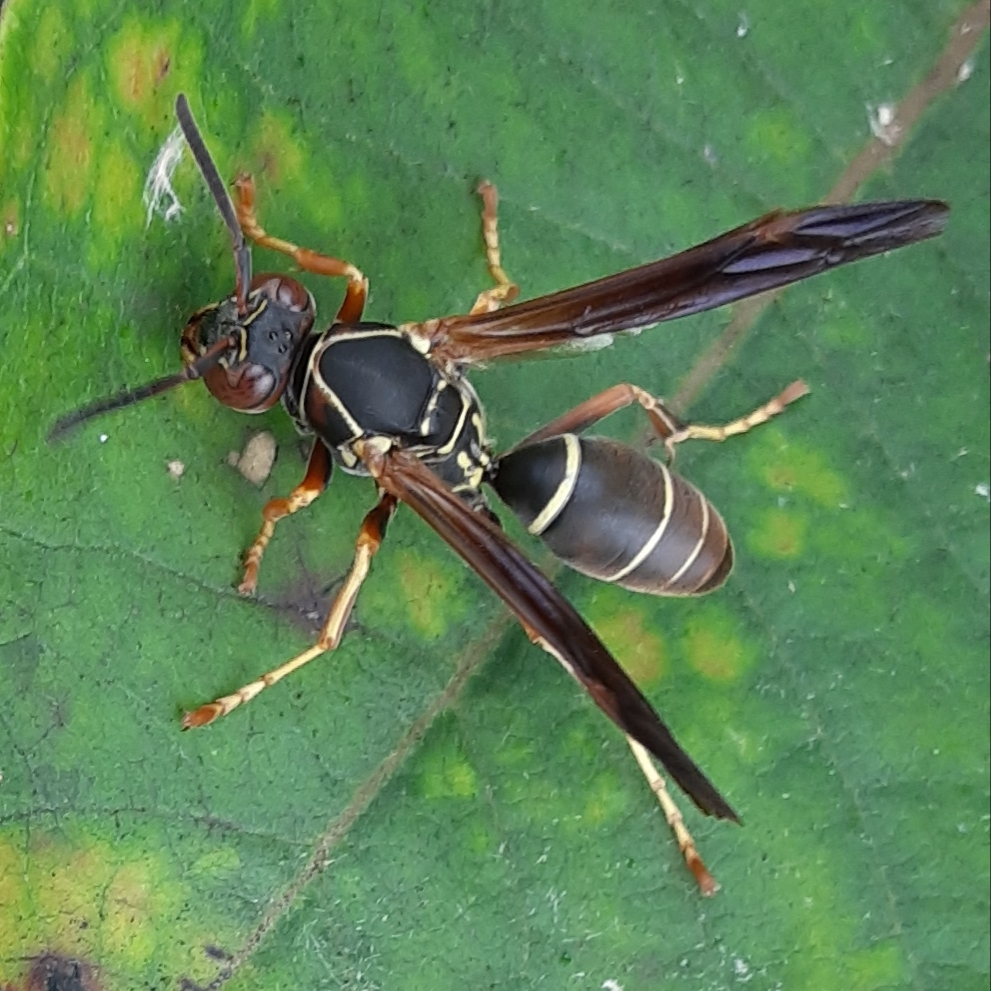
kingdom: Animalia
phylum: Arthropoda
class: Insecta
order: Hymenoptera
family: Eumenidae
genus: Polistes
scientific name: Polistes fuscatus
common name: Dark paper wasp
